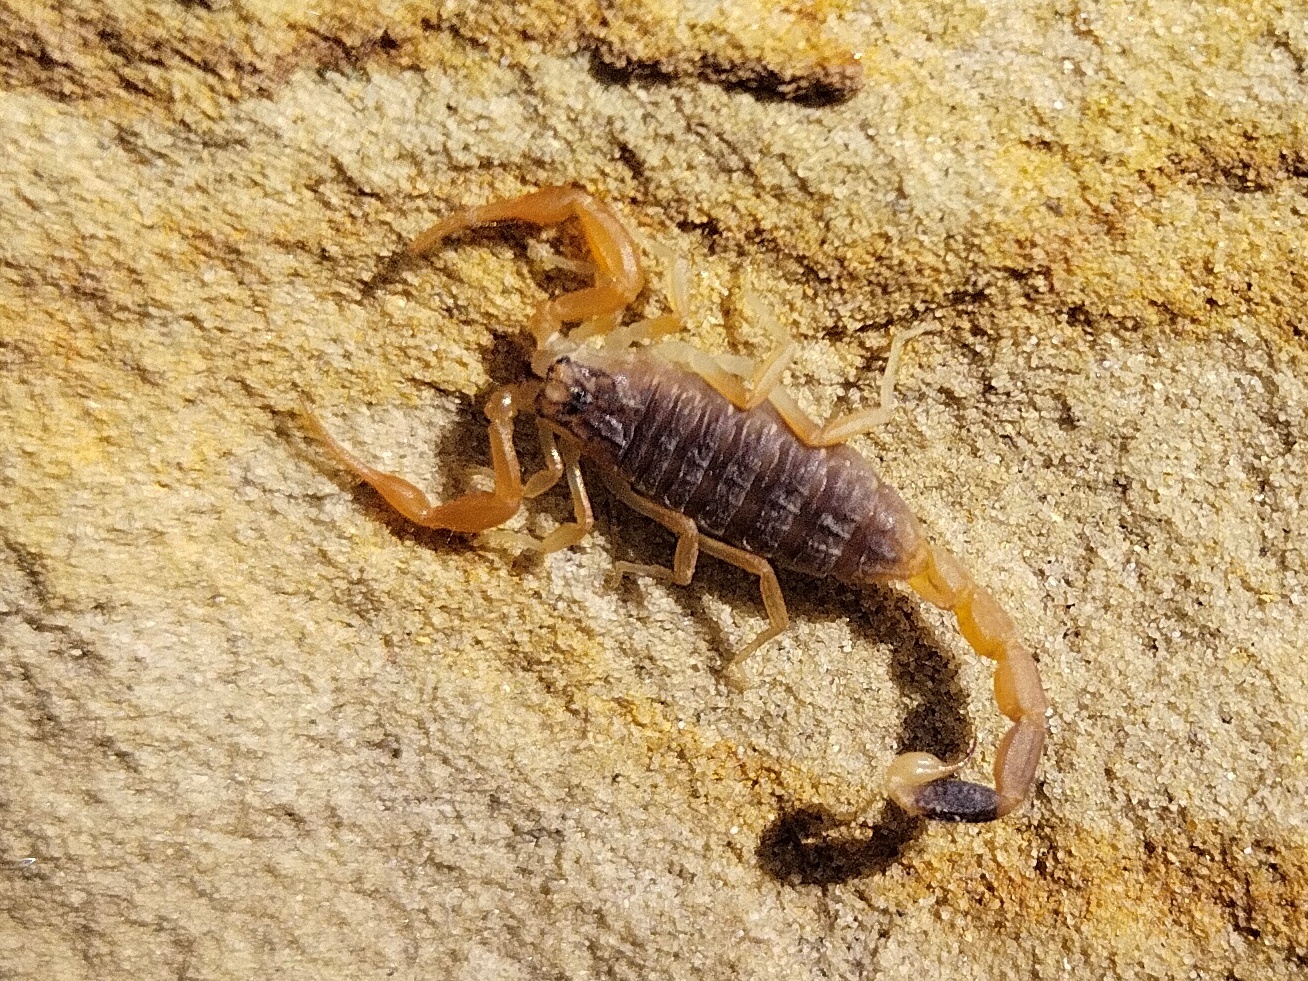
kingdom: Animalia
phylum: Arthropoda
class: Arachnida
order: Scorpiones
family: Buthidae
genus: Olivierus
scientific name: Olivierus caucasicus
